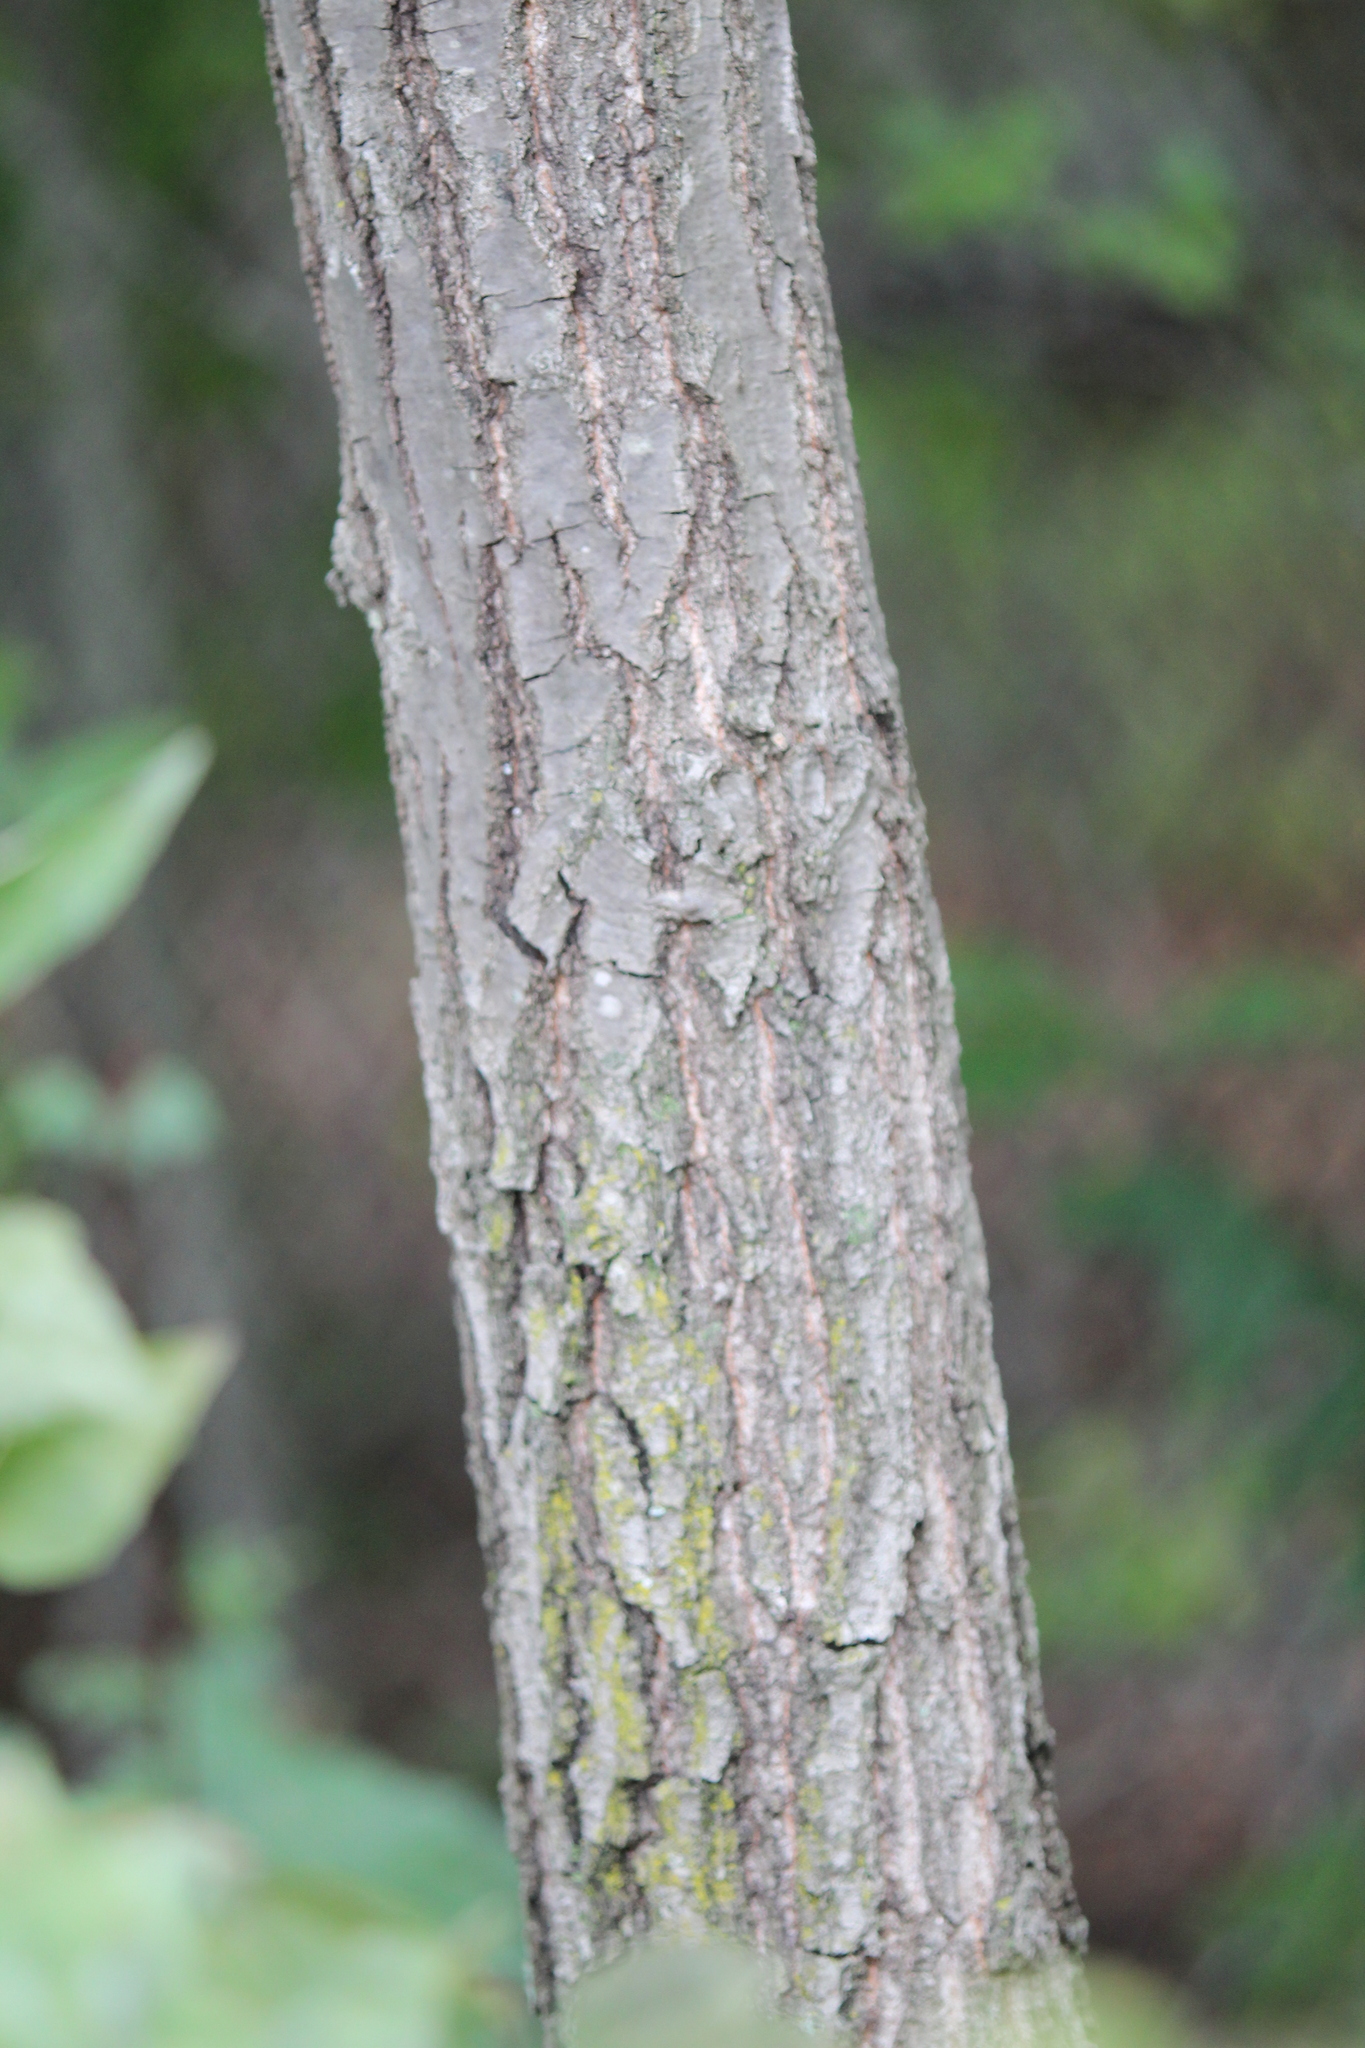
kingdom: Plantae
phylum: Tracheophyta
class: Magnoliopsida
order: Fagales
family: Fagaceae
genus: Quercus
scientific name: Quercus rubra
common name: Red oak
